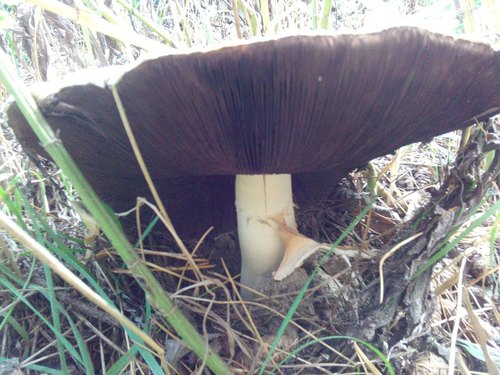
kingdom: Fungi
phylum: Basidiomycota
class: Agaricomycetes
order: Agaricales
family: Agaricaceae
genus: Agaricus
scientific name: Agaricus
